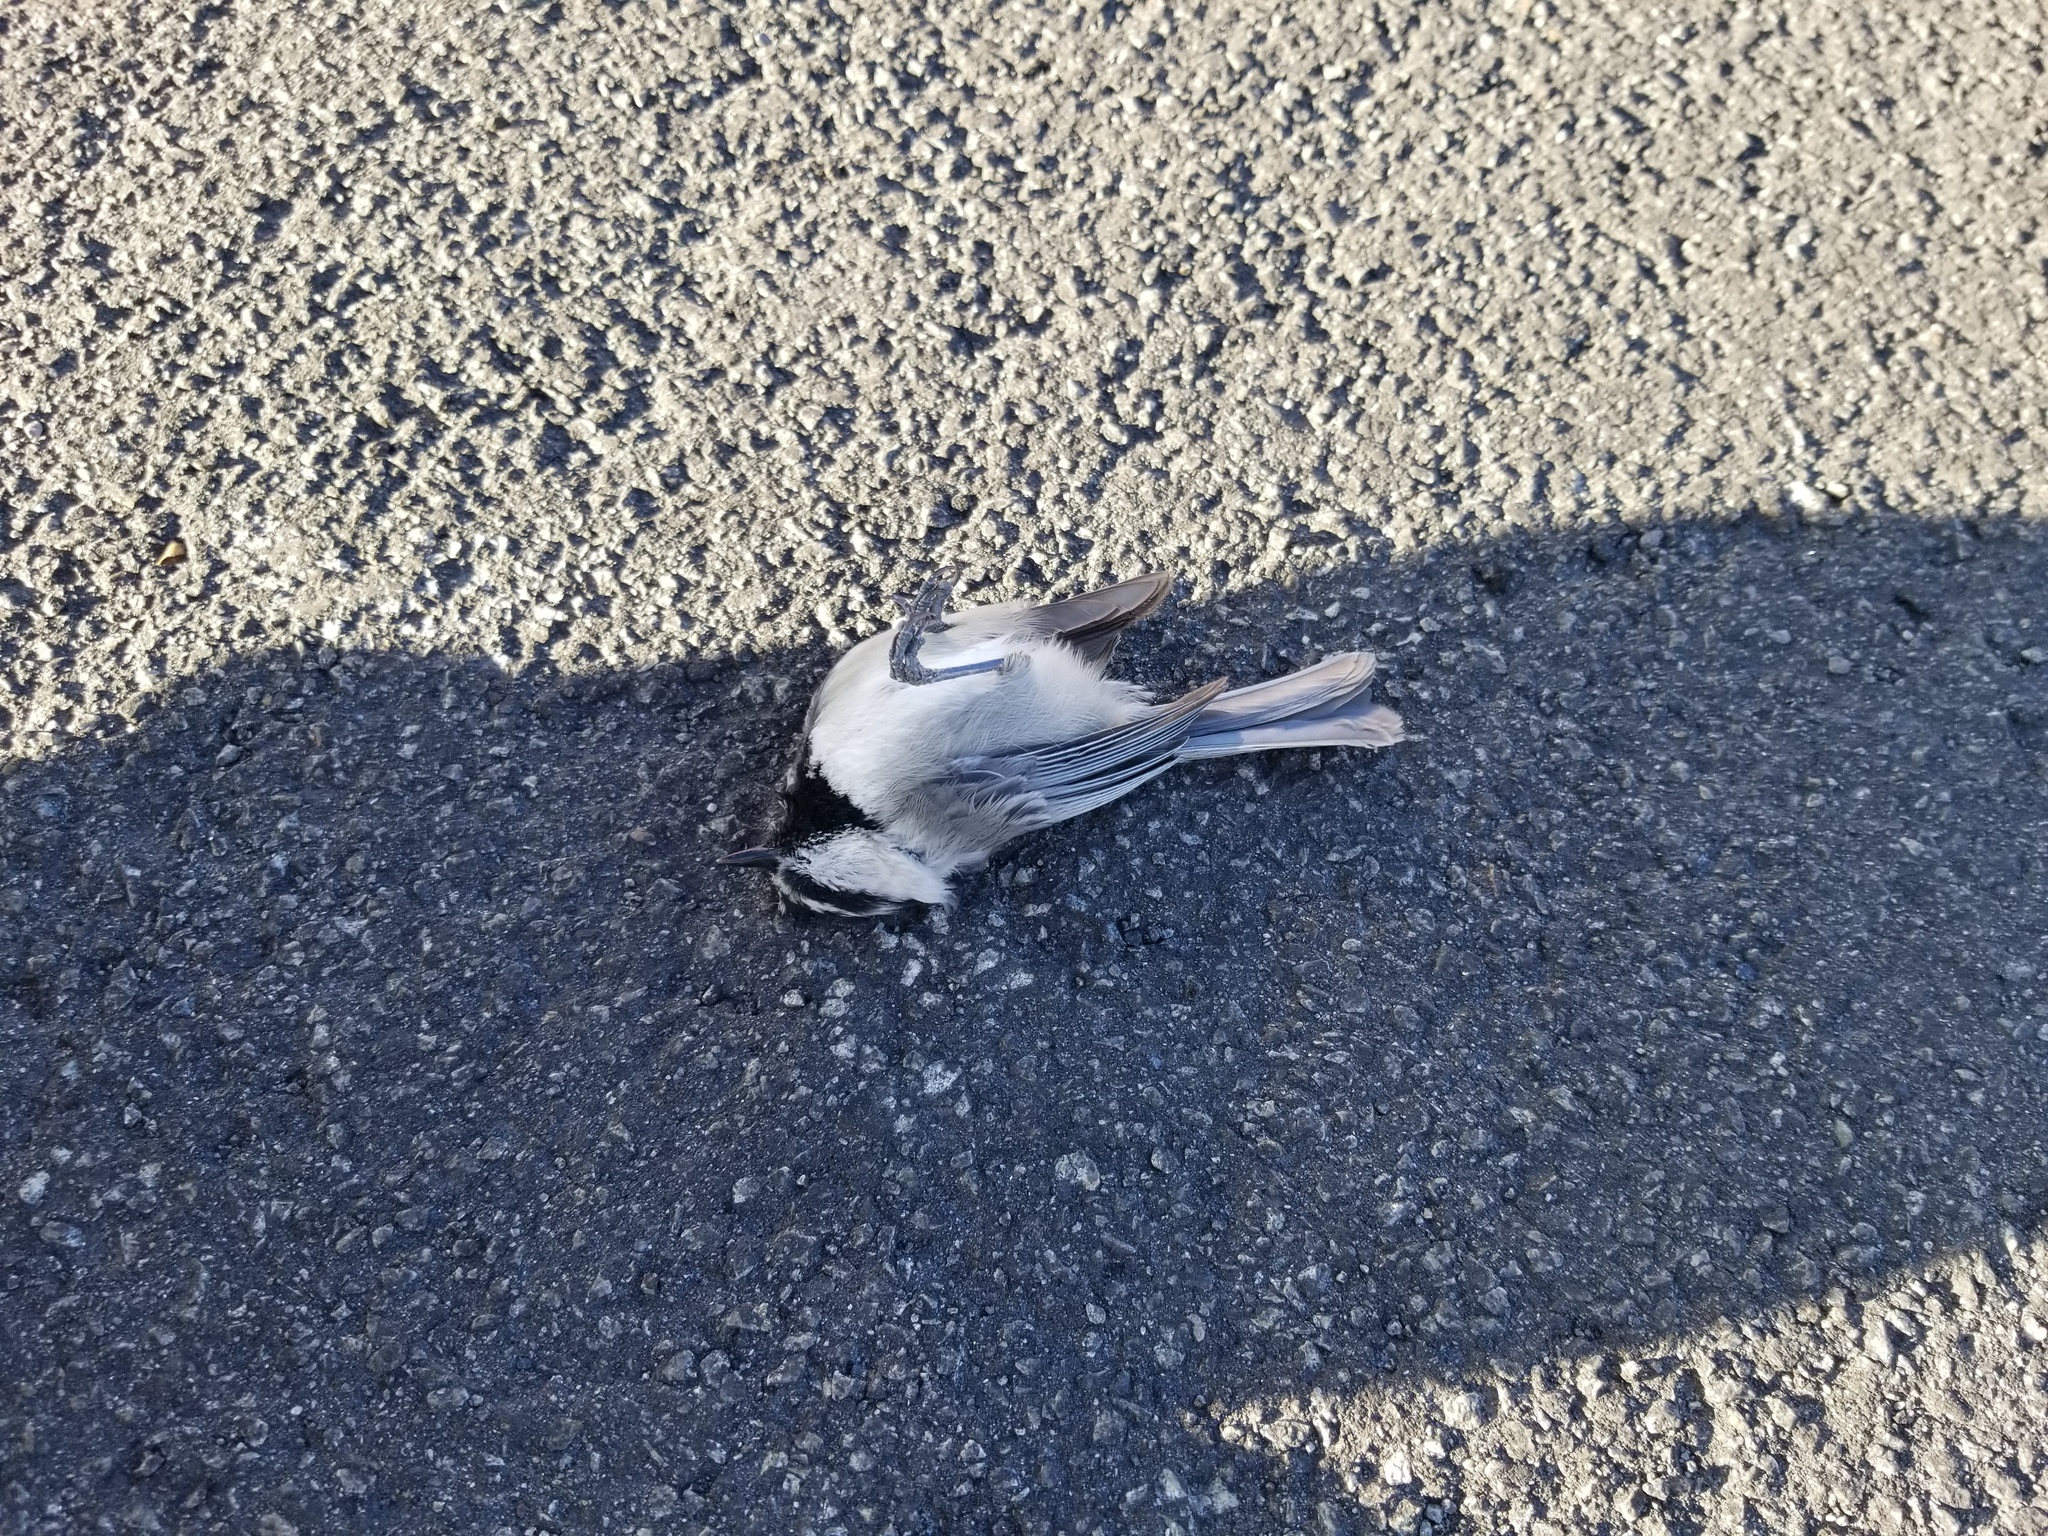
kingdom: Animalia
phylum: Chordata
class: Aves
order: Passeriformes
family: Paridae
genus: Poecile
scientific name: Poecile gambeli
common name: Mountain chickadee
